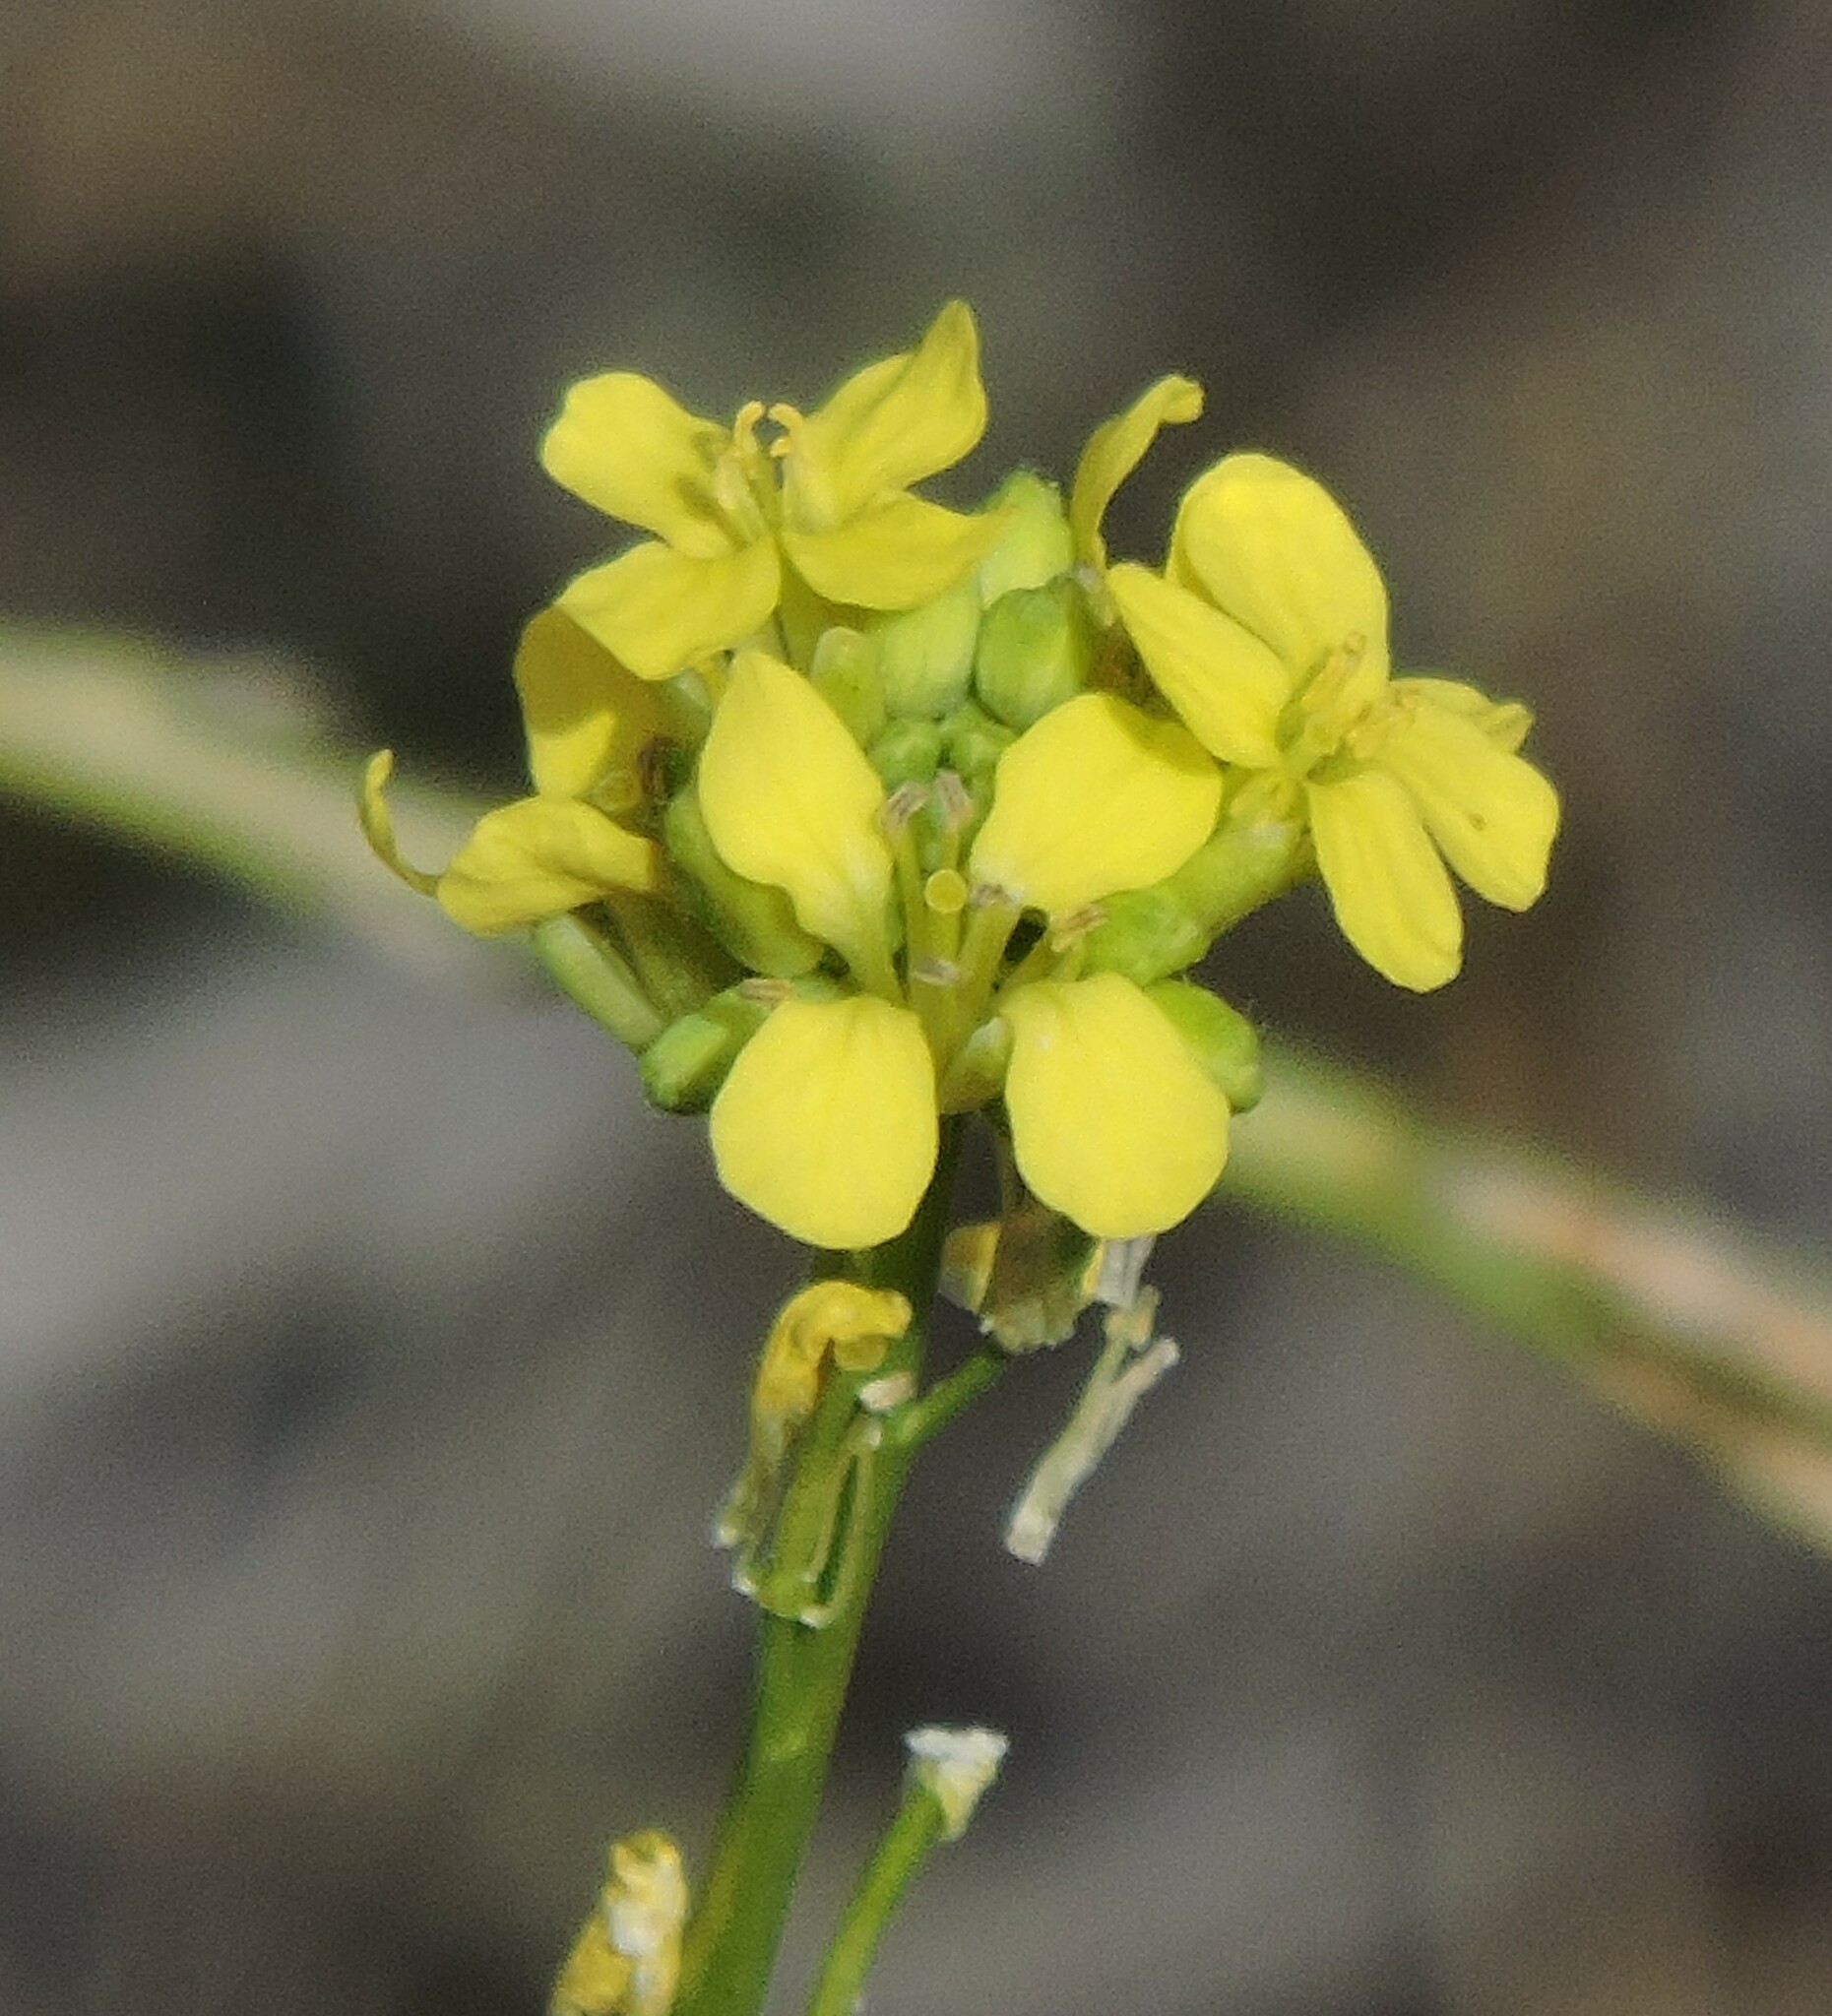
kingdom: Plantae
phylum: Tracheophyta
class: Magnoliopsida
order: Brassicales
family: Brassicaceae
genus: Hirschfeldia
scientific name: Hirschfeldia incana
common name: Hoary mustard
